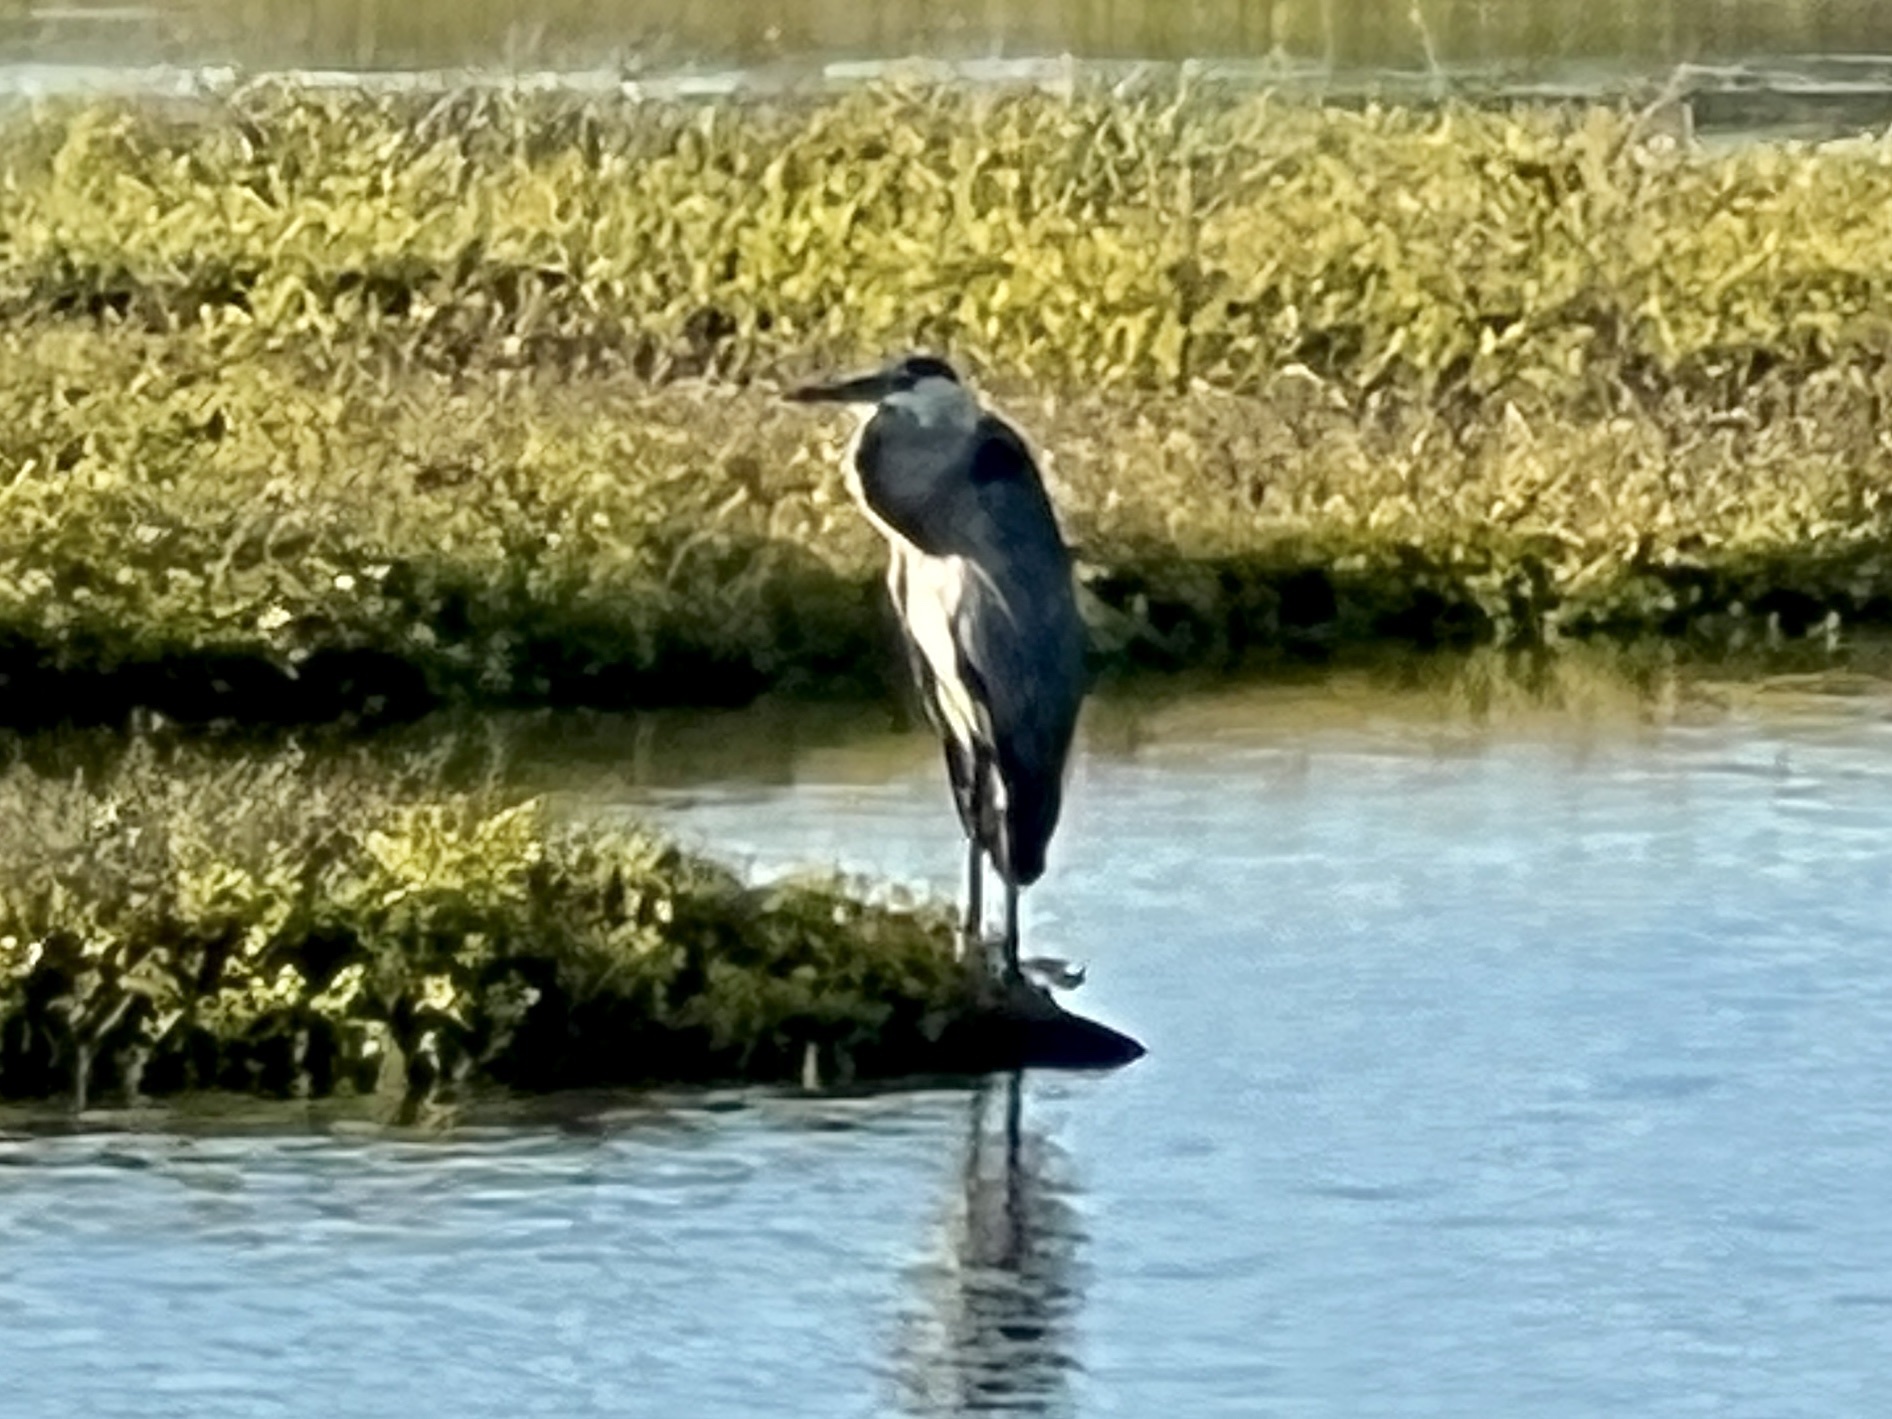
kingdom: Animalia
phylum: Chordata
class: Aves
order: Pelecaniformes
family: Ardeidae
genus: Ardea
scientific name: Ardea herodias
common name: Great blue heron
